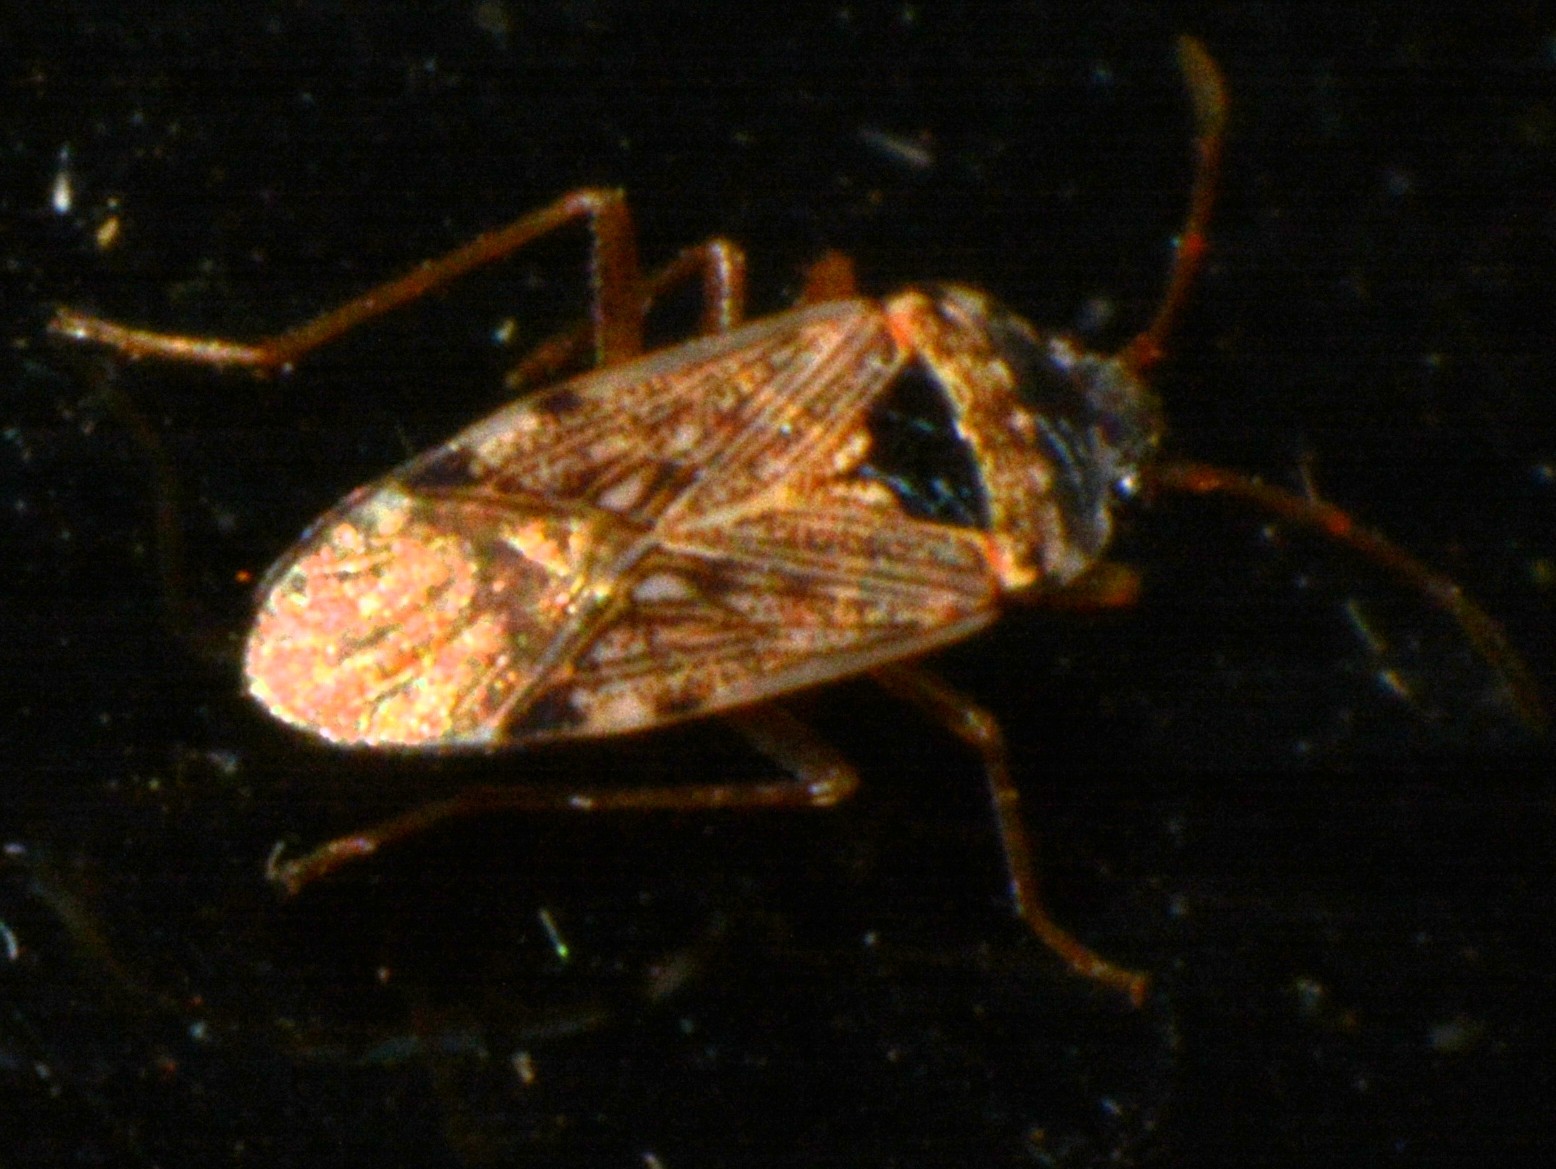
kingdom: Animalia
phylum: Arthropoda
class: Insecta
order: Hemiptera
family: Rhyparochromidae
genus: Elasmolomus
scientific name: Elasmolomus transversus
